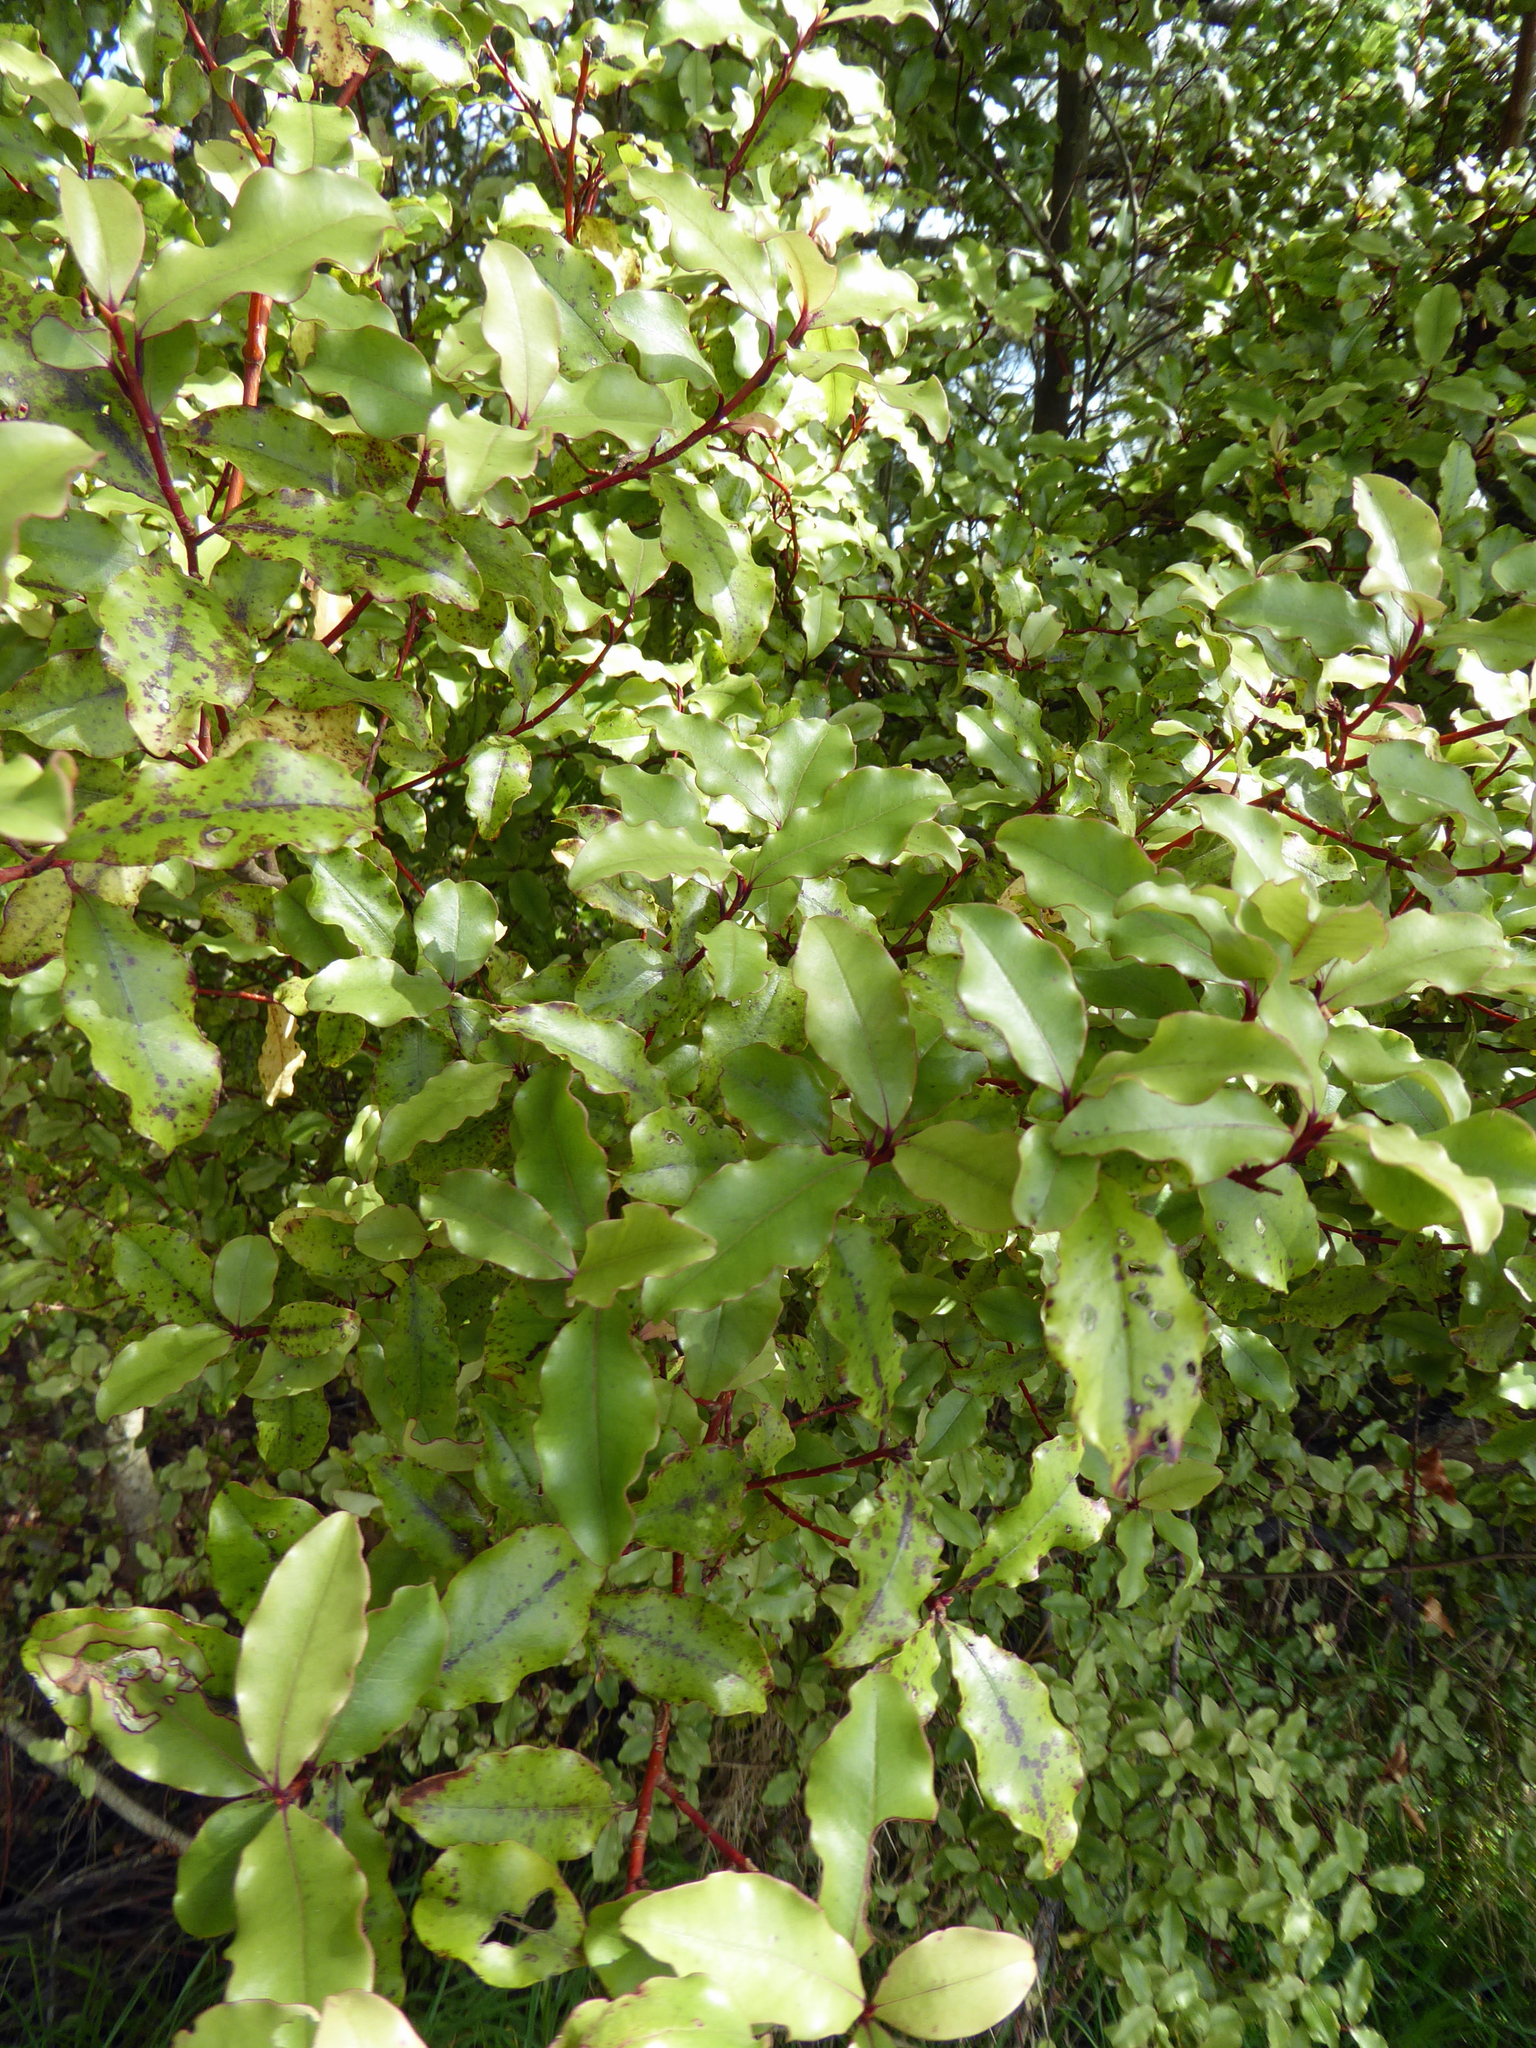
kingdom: Plantae
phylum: Tracheophyta
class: Magnoliopsida
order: Ericales
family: Primulaceae
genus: Myrsine
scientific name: Myrsine australis
